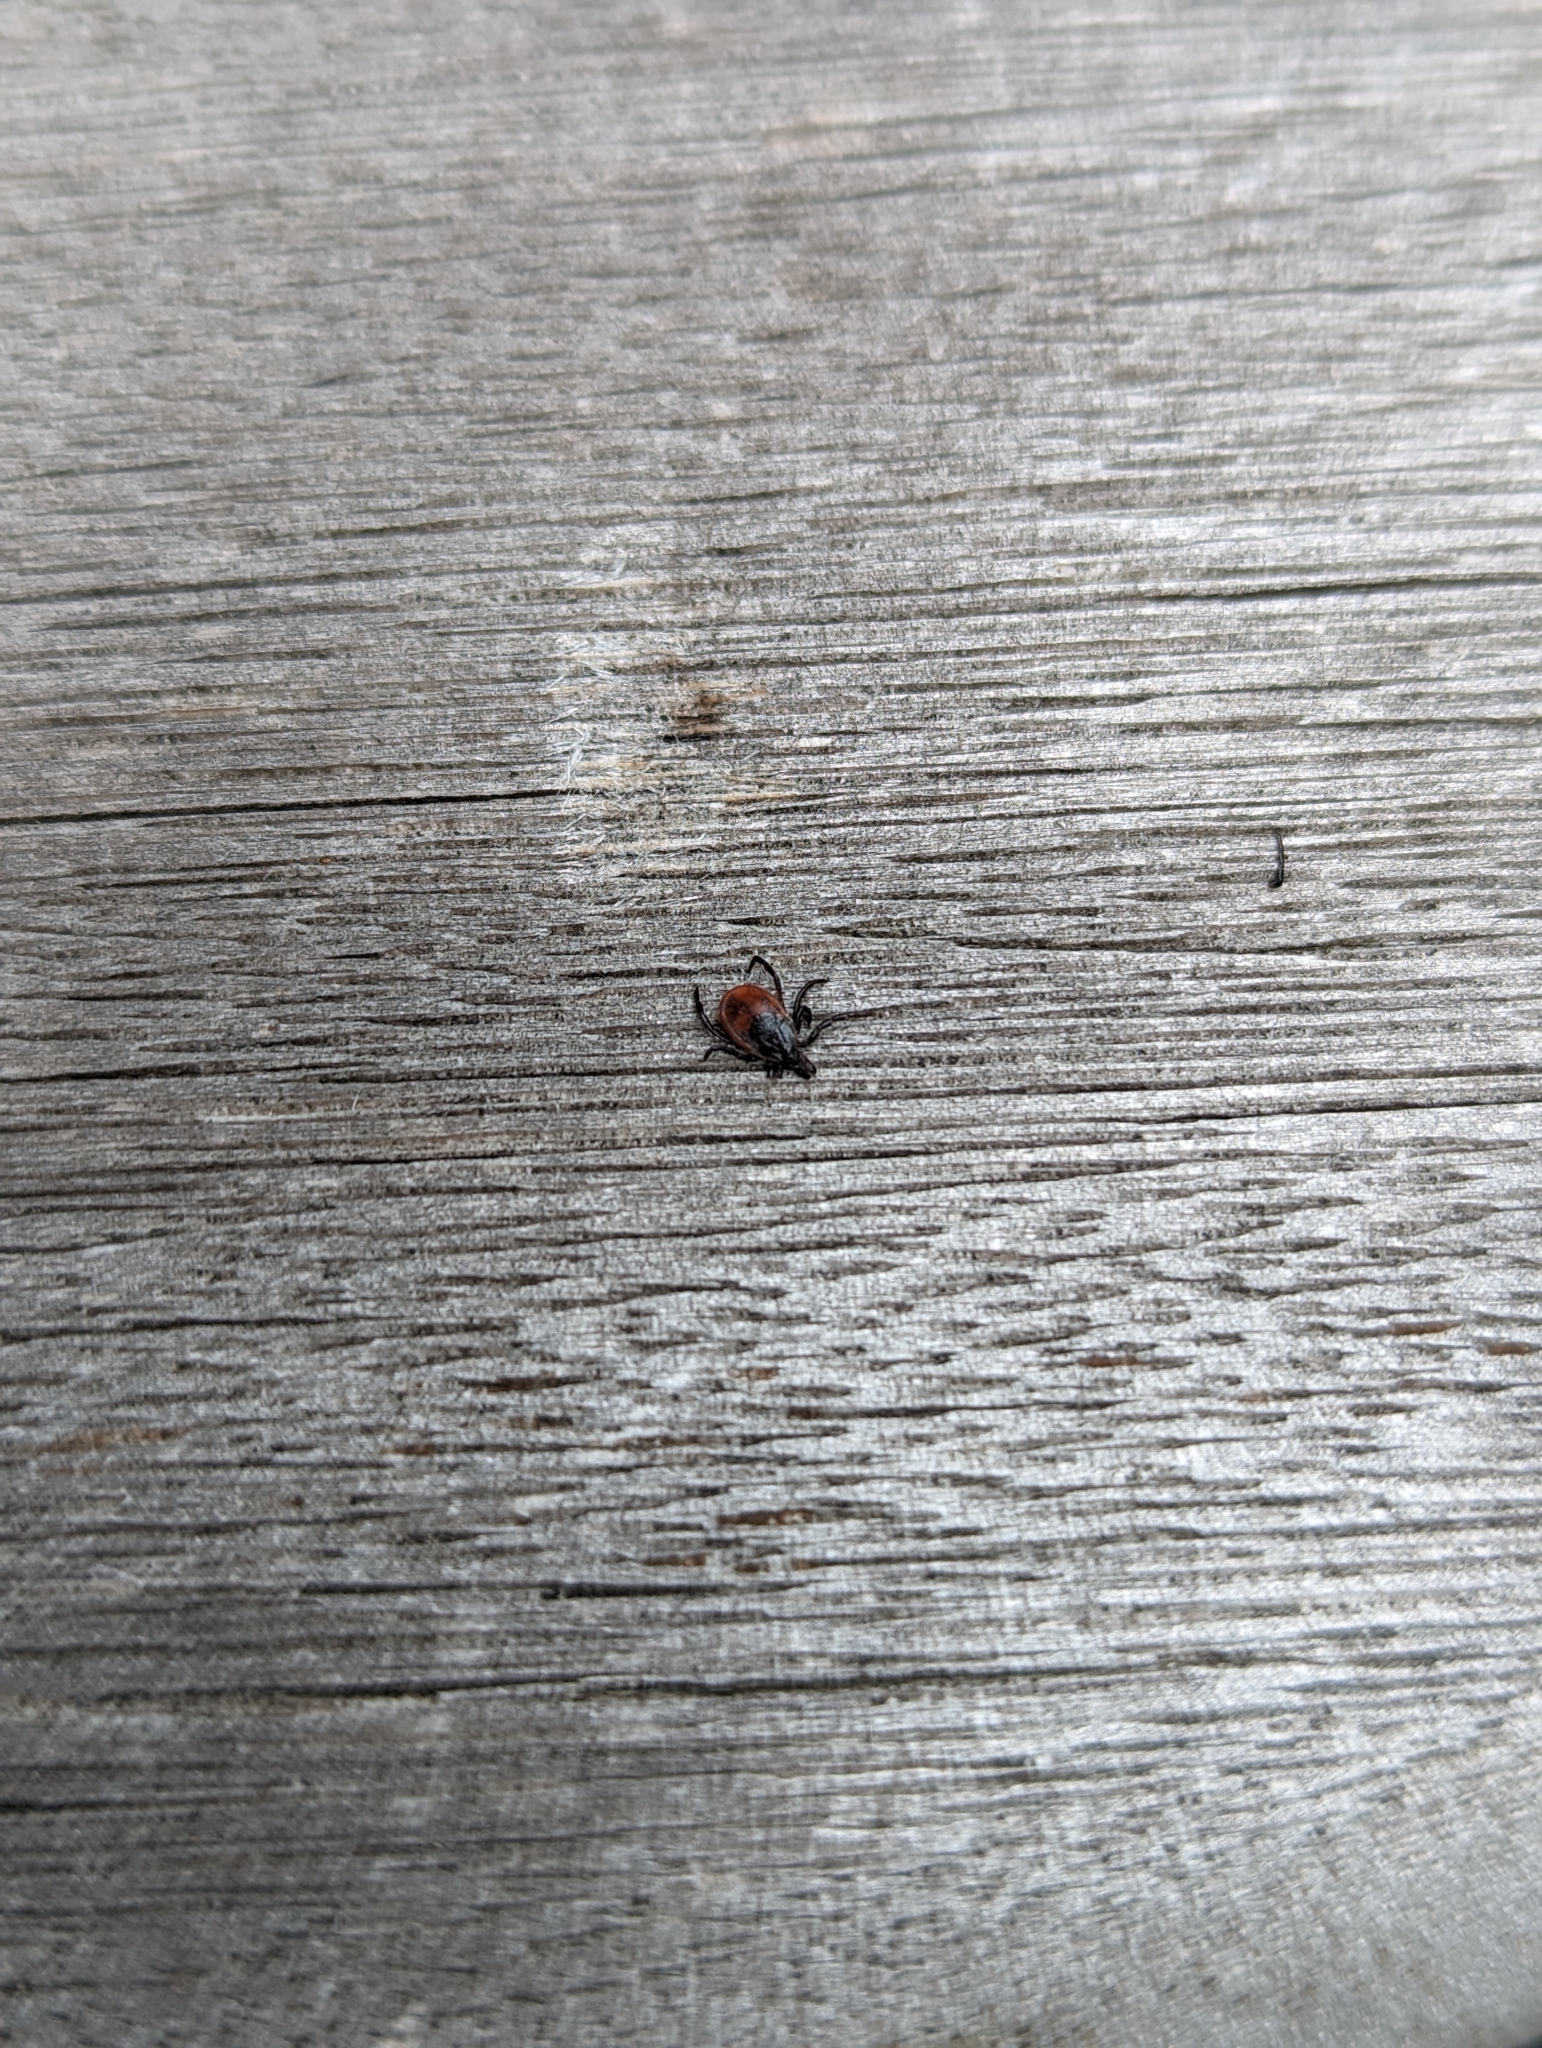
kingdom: Animalia
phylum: Arthropoda
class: Arachnida
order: Ixodida
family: Ixodidae
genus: Ixodes
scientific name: Ixodes scapularis
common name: Black legged tick
